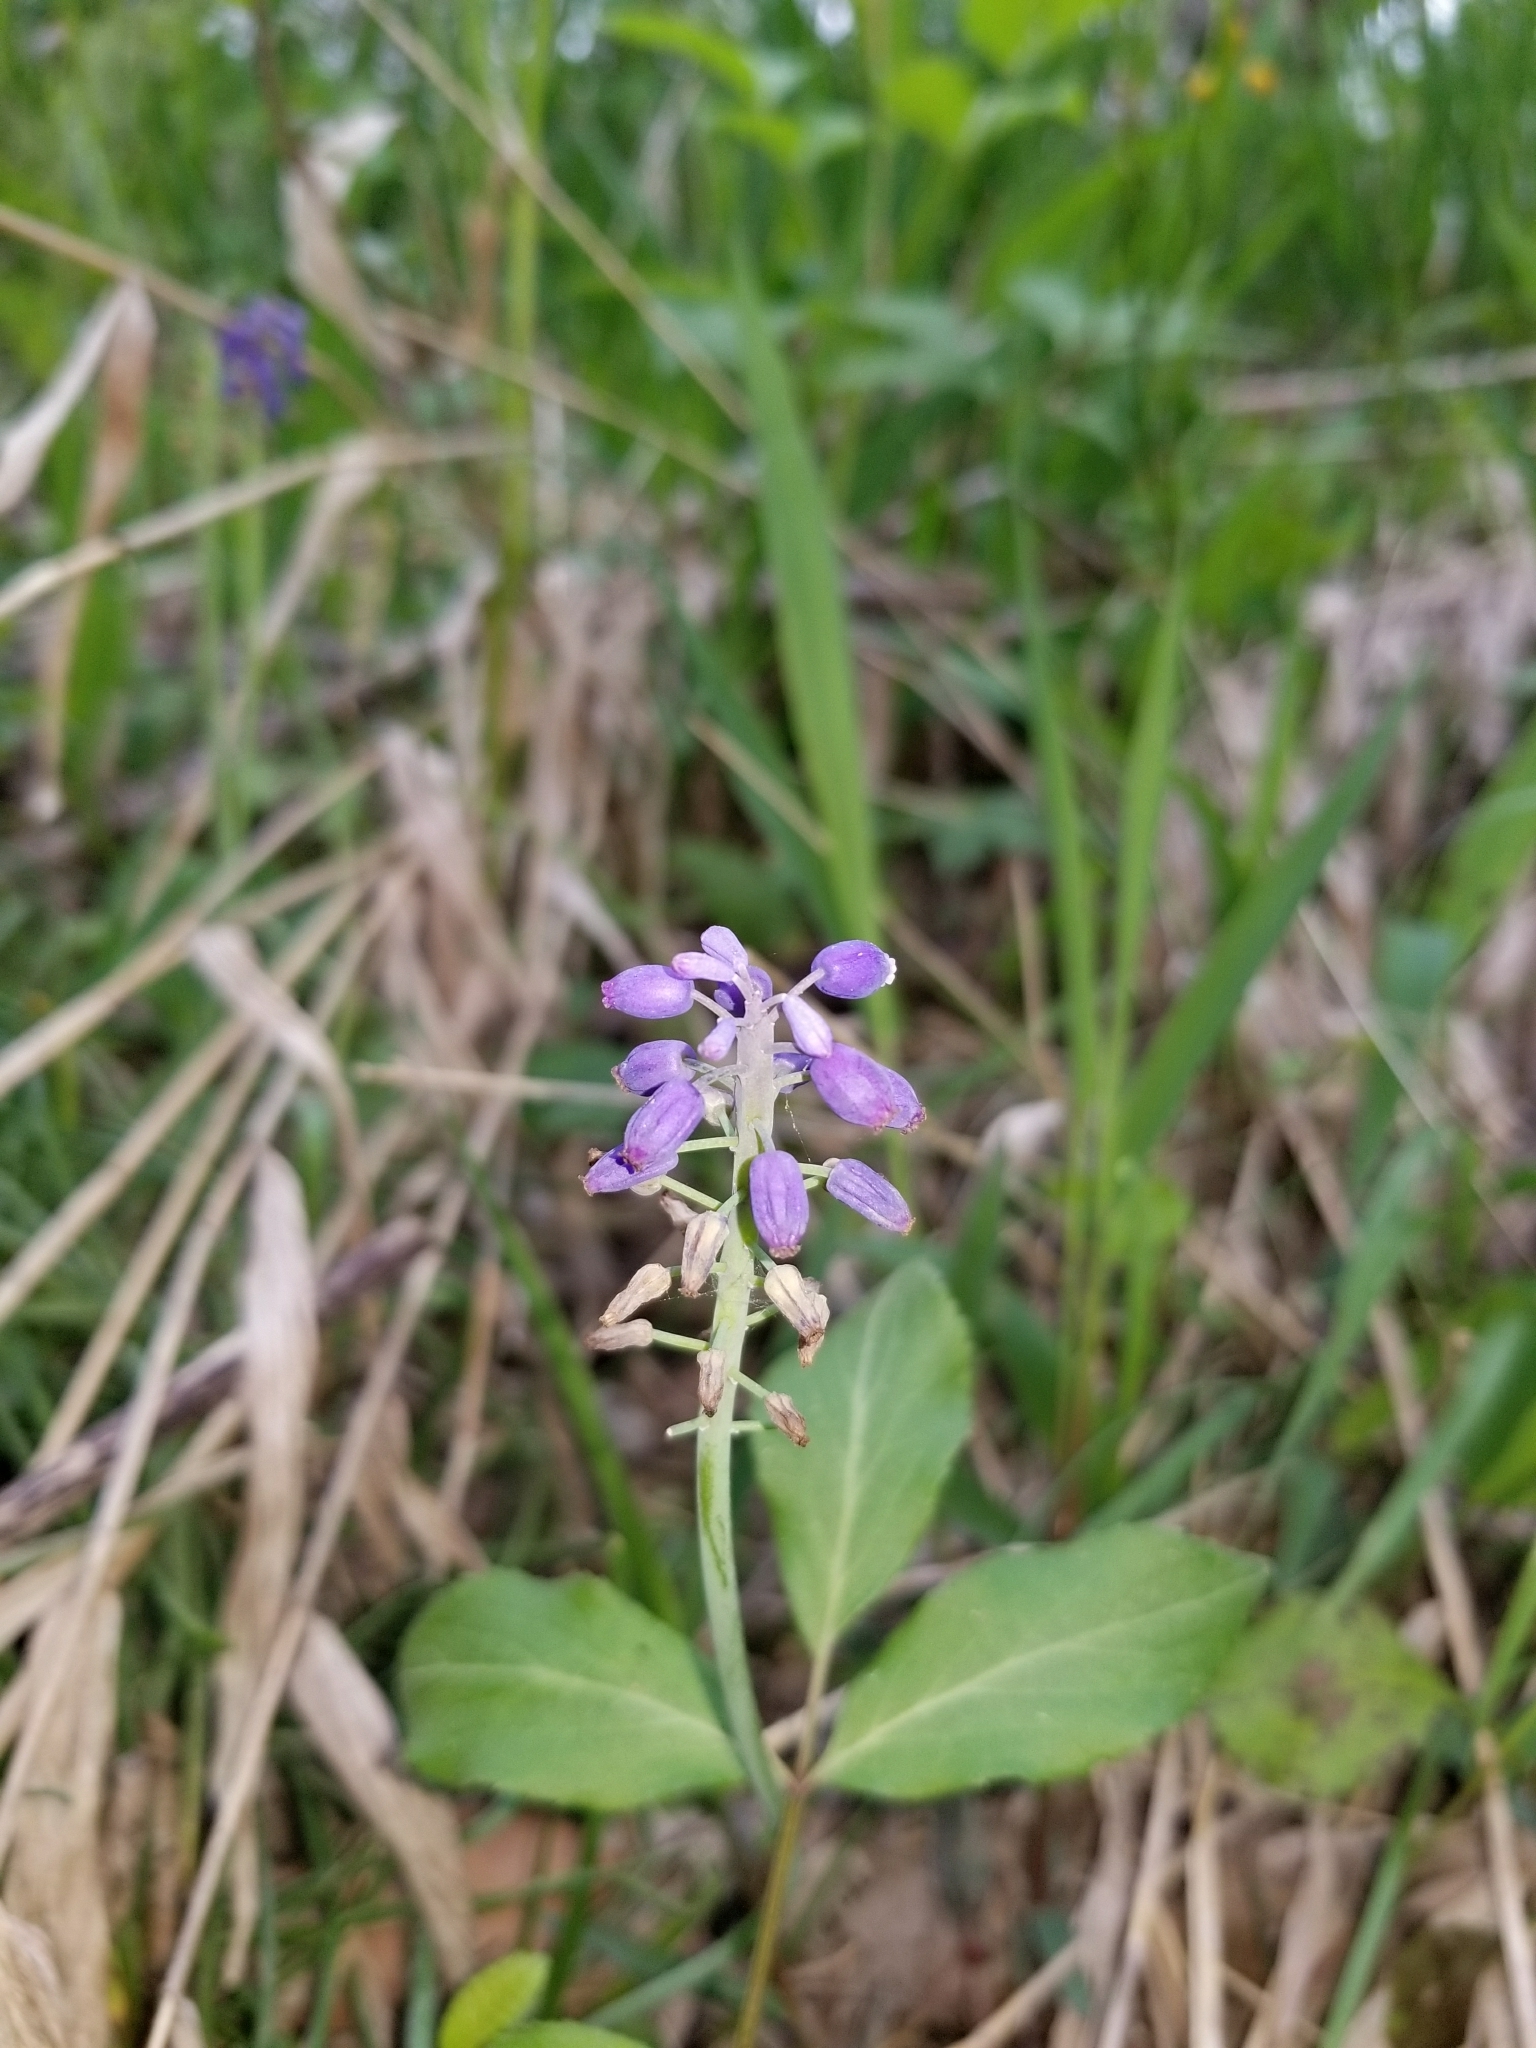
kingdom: Plantae
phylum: Tracheophyta
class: Liliopsida
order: Asparagales
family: Asparagaceae
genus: Muscari
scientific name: Muscari neglectum
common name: Grape-hyacinth
